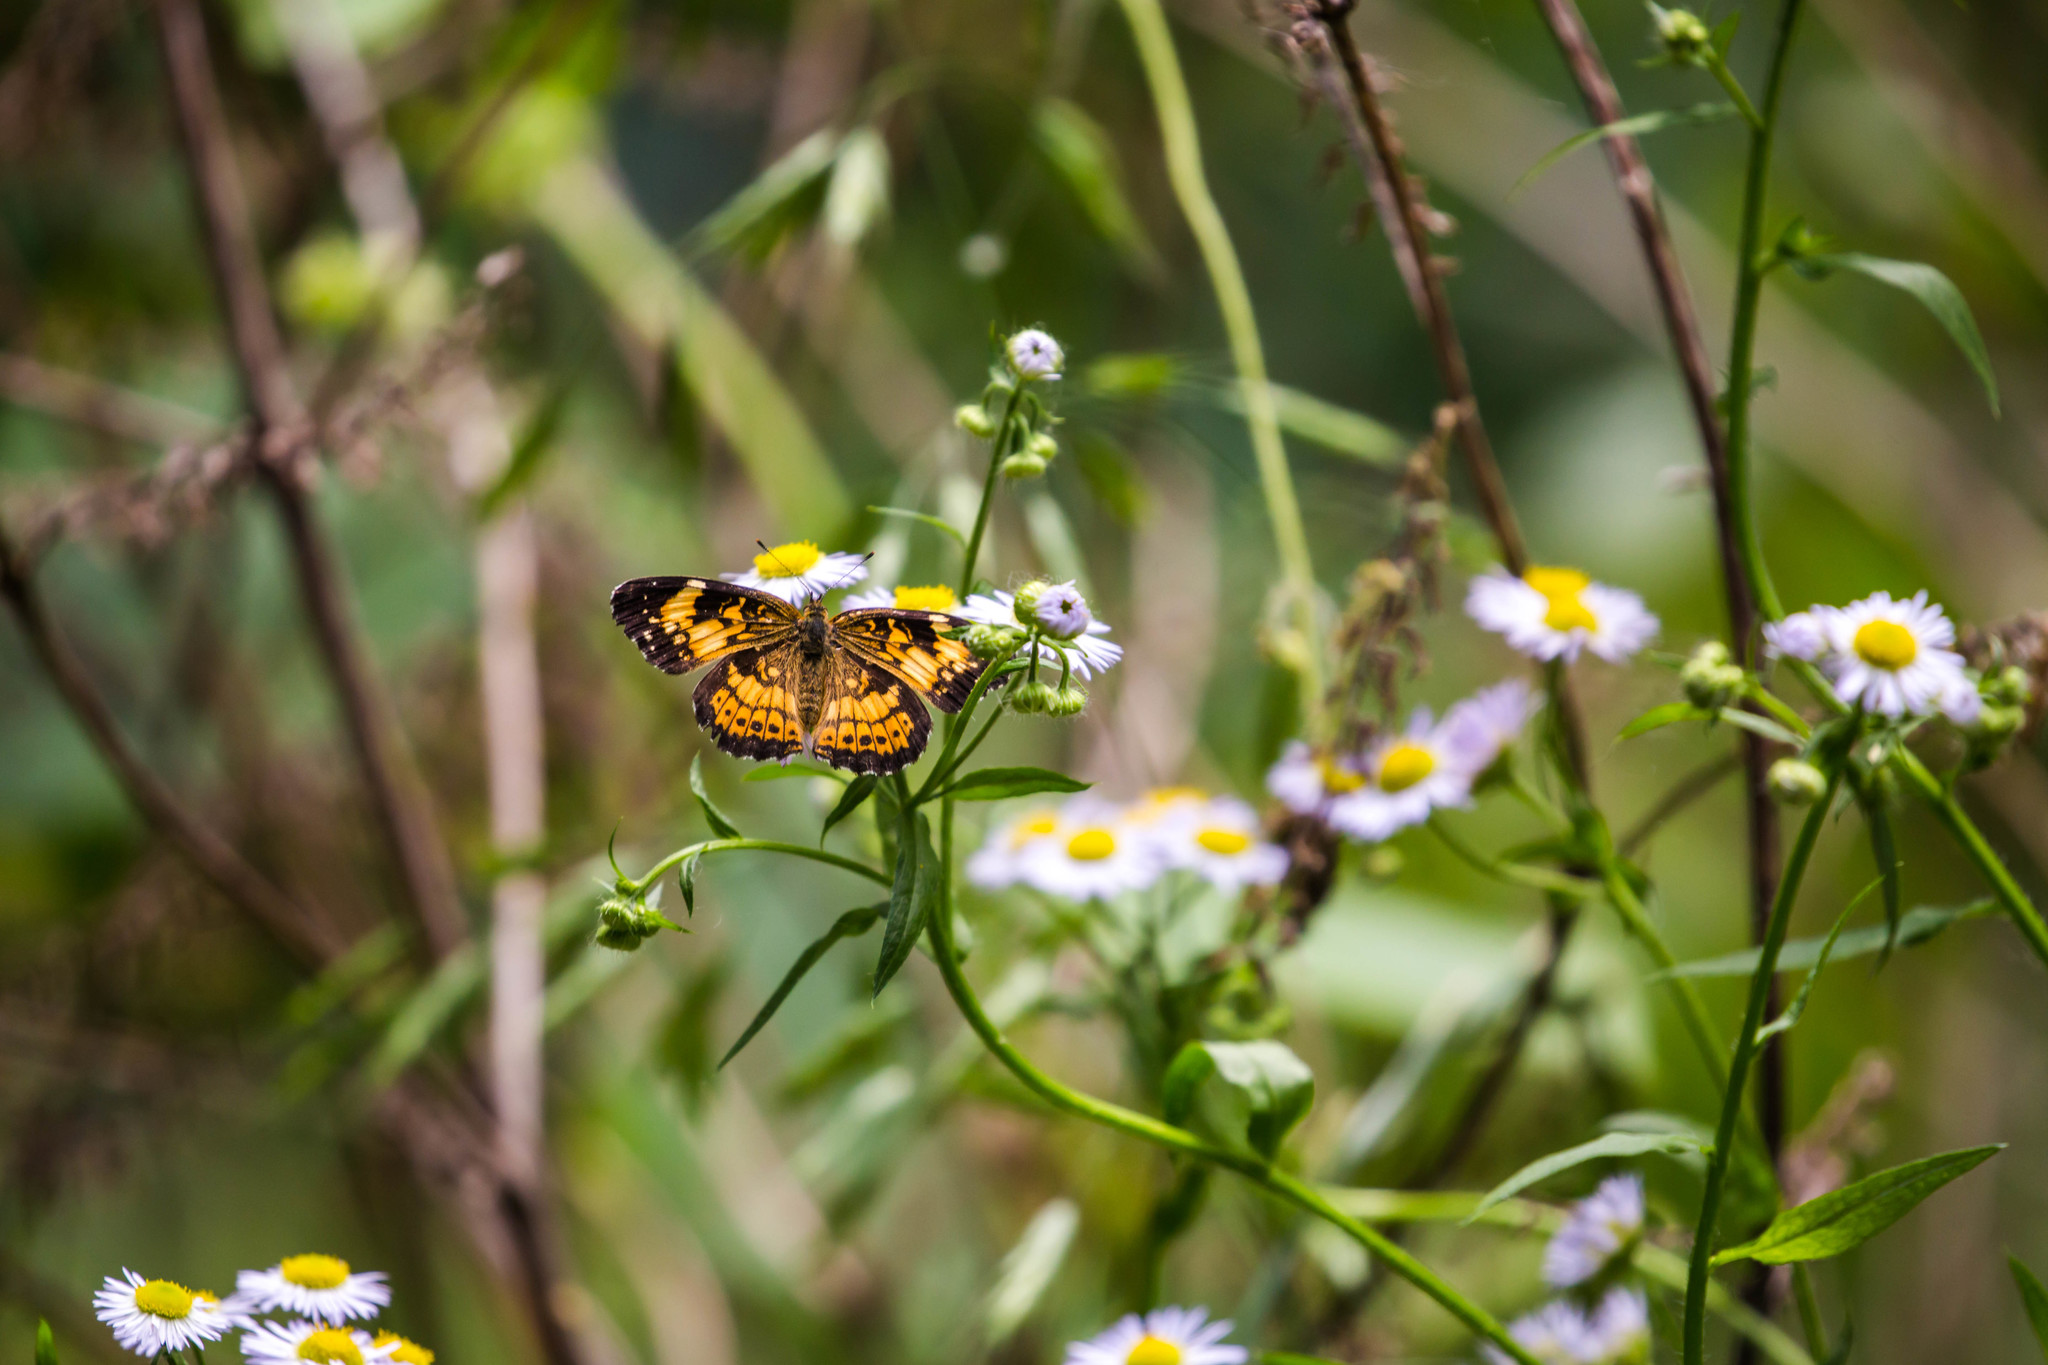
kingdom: Animalia
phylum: Arthropoda
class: Insecta
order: Lepidoptera
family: Nymphalidae
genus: Chlosyne
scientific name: Chlosyne nycteis
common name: Silvery checkerspot
